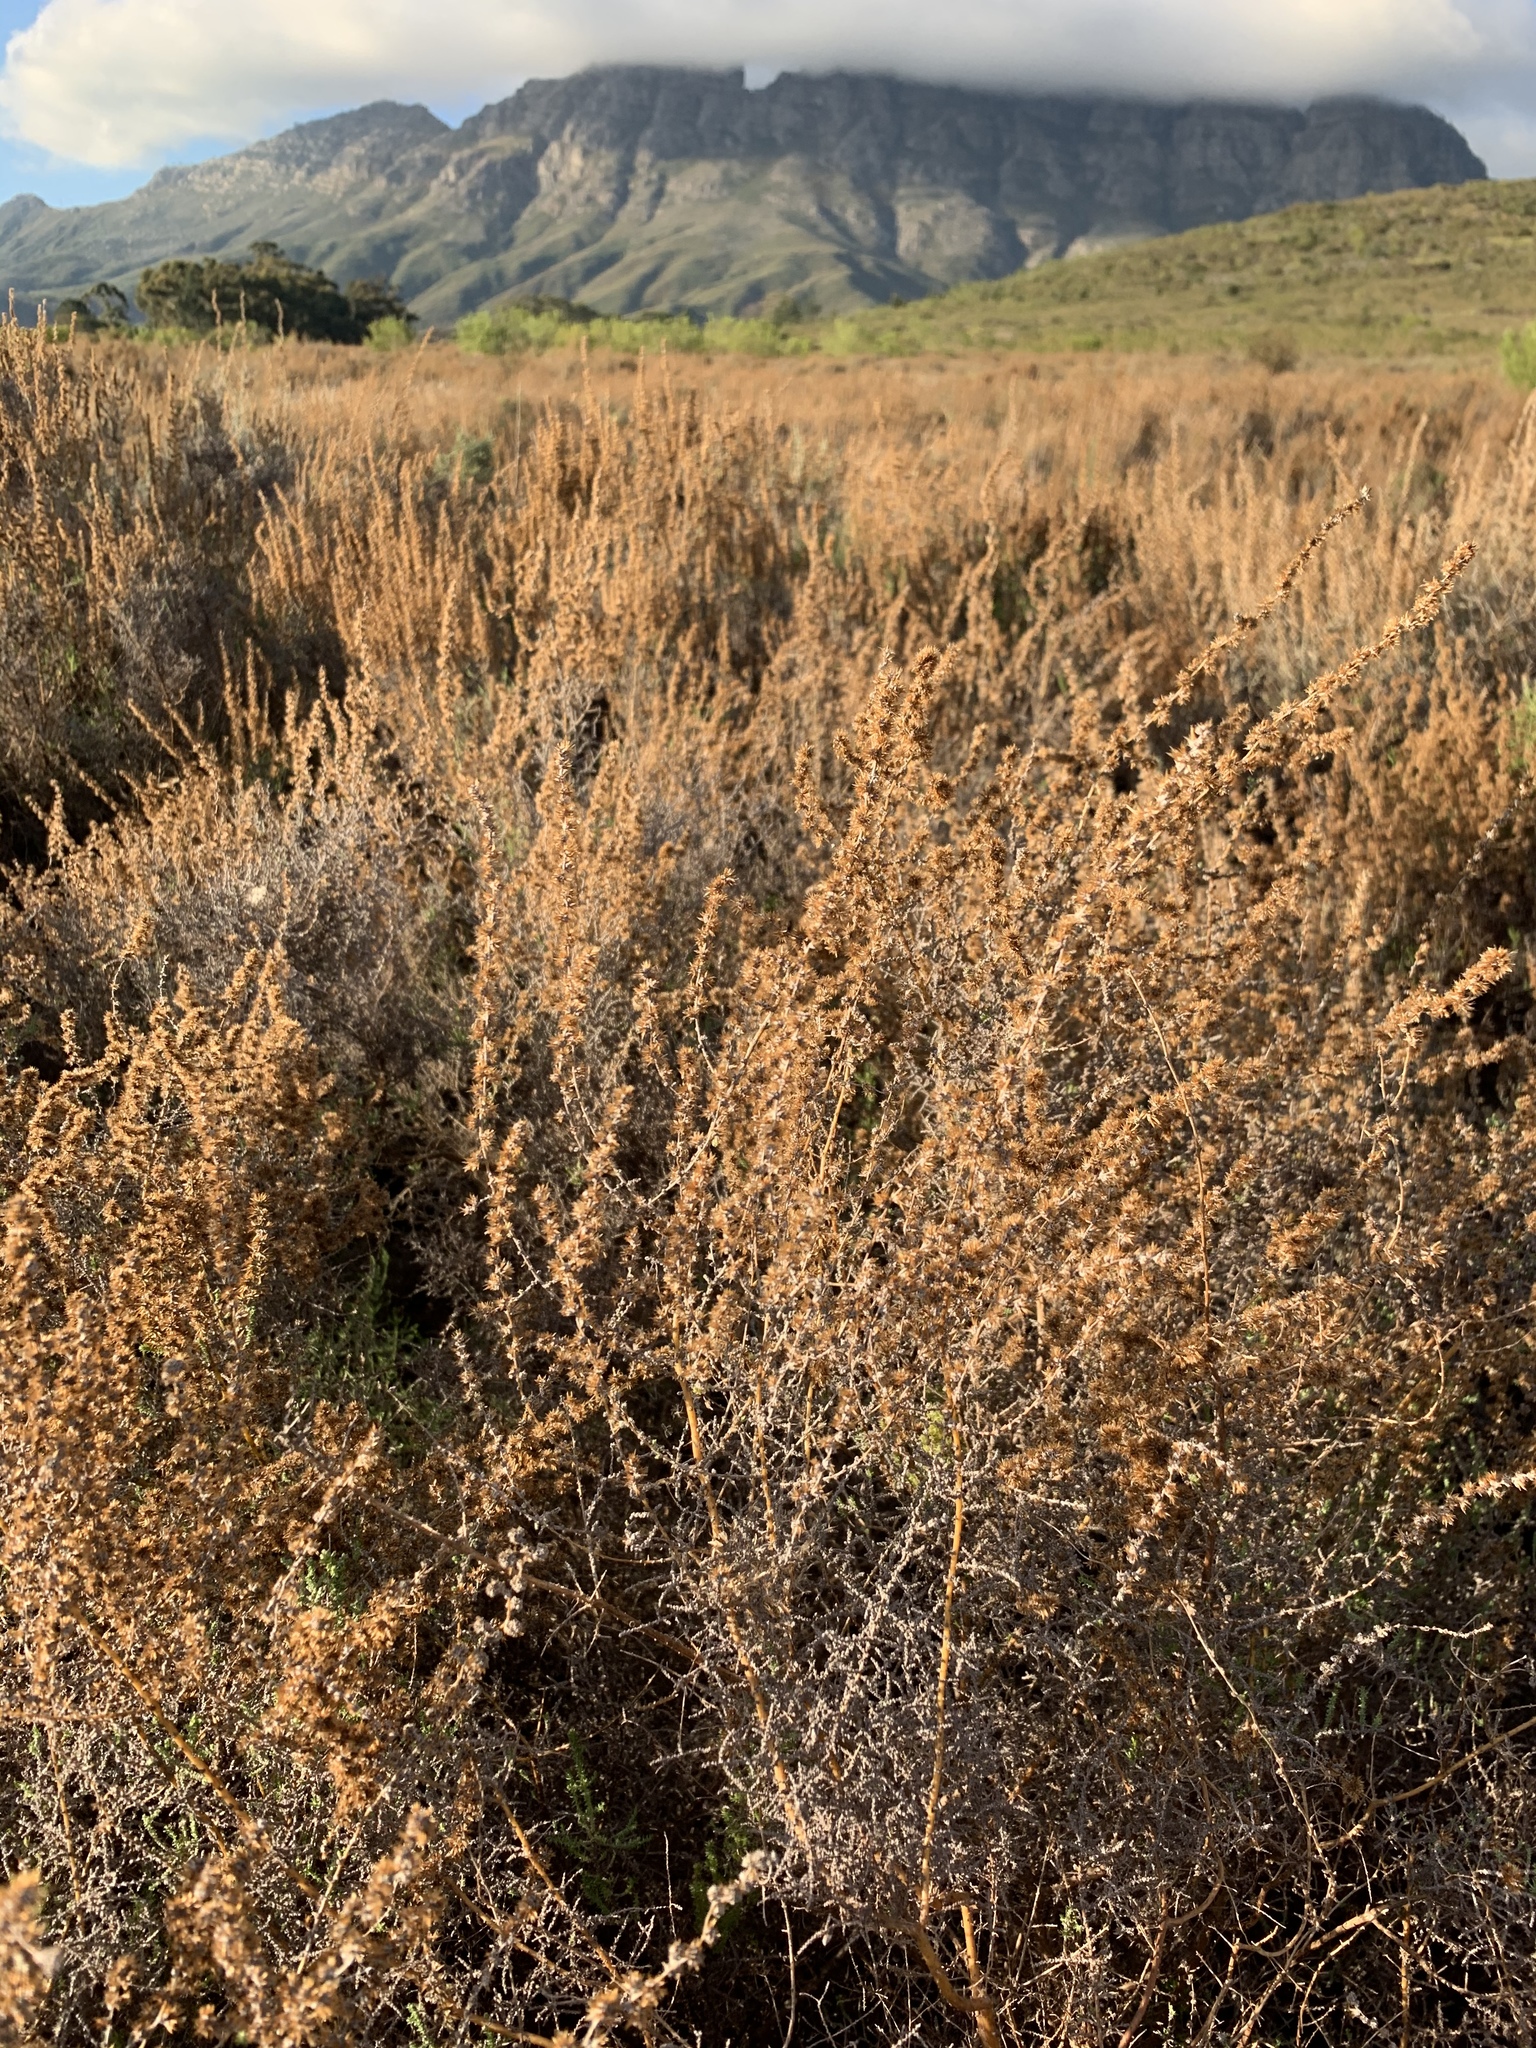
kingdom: Plantae
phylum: Tracheophyta
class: Magnoliopsida
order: Asterales
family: Asteraceae
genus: Seriphium
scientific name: Seriphium plumosum
